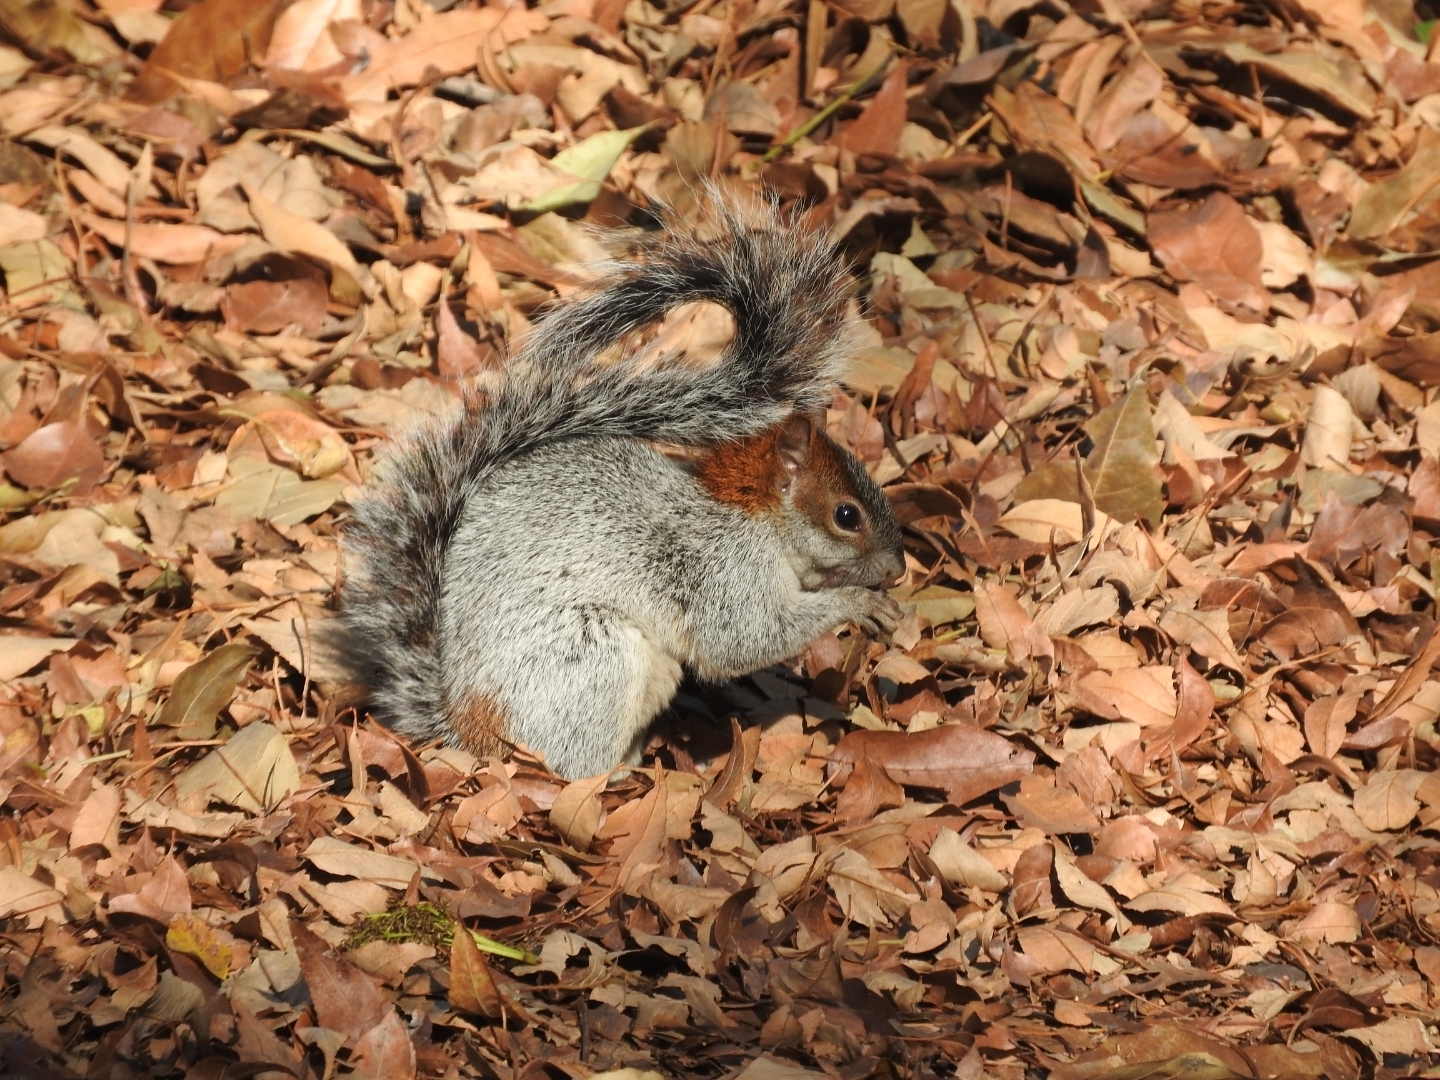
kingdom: Animalia
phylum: Chordata
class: Mammalia
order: Rodentia
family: Sciuridae
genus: Sciurus
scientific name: Sciurus aureogaster
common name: Red-bellied squirrel
